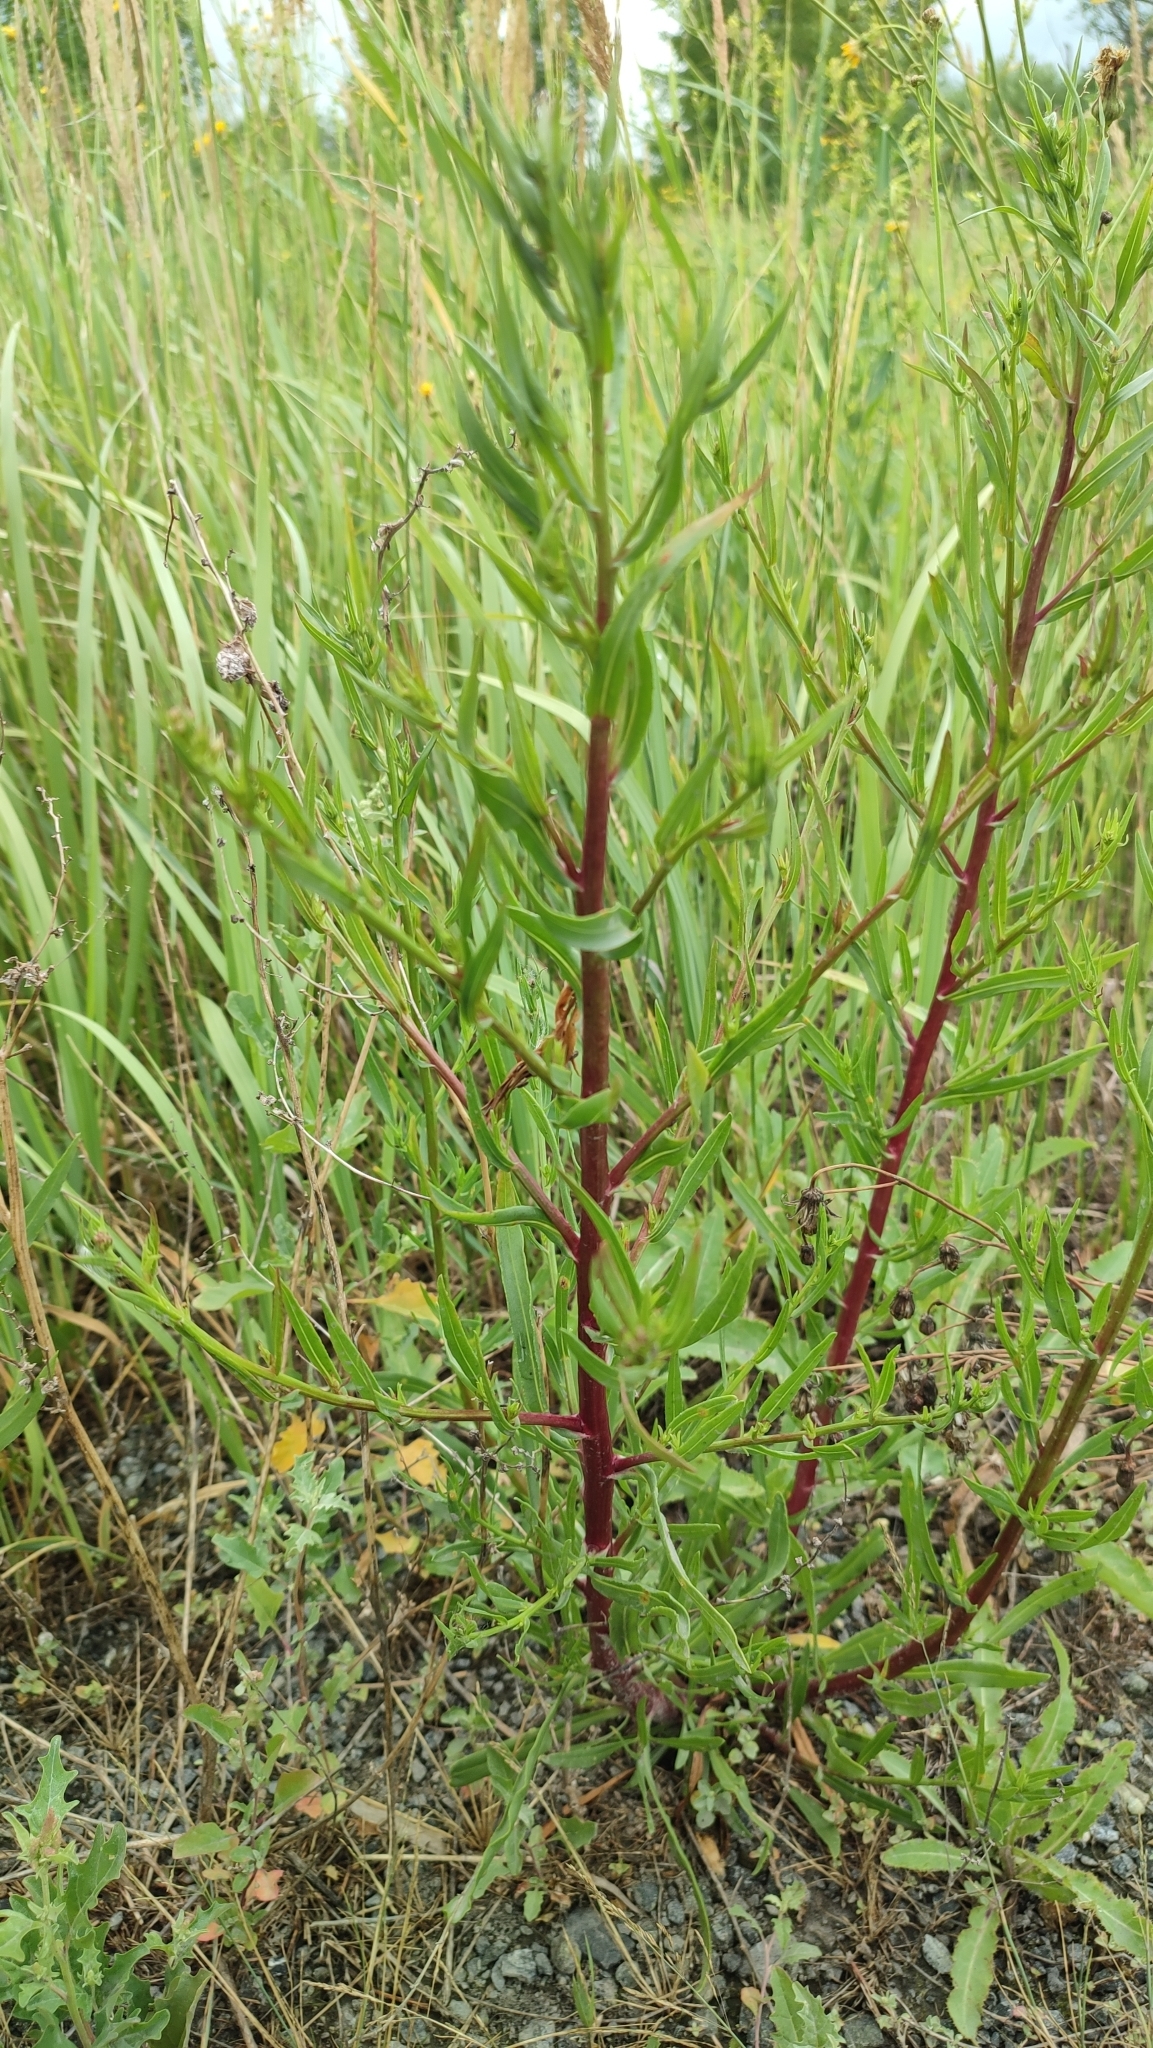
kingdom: Plantae
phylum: Tracheophyta
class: Magnoliopsida
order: Asterales
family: Asteraceae
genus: Tripolium
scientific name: Tripolium pannonicum
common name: Sea aster
